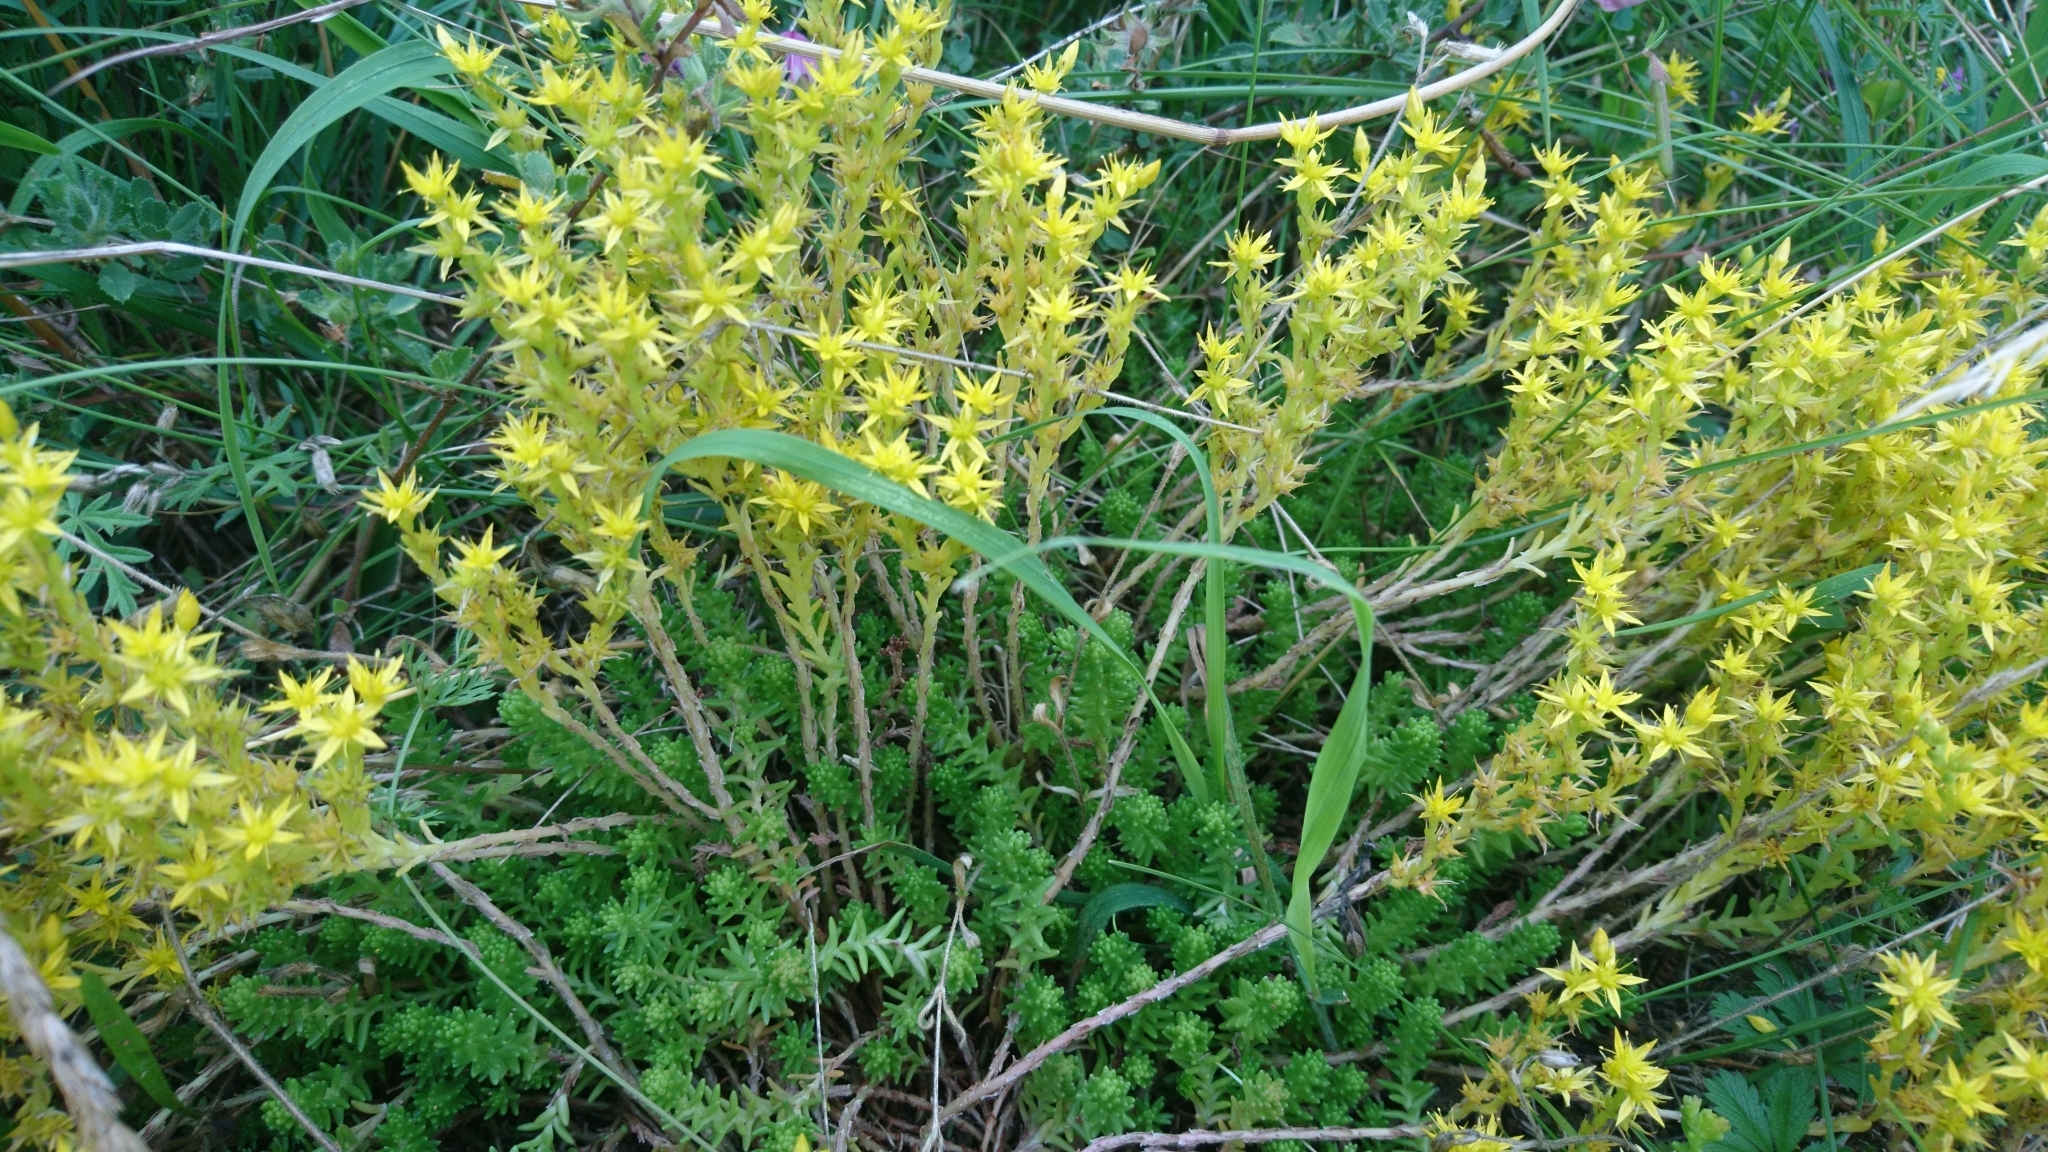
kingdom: Plantae
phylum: Tracheophyta
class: Magnoliopsida
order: Saxifragales
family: Crassulaceae
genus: Sedum
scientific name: Sedum sexangulare
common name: Tasteless stonecrop
